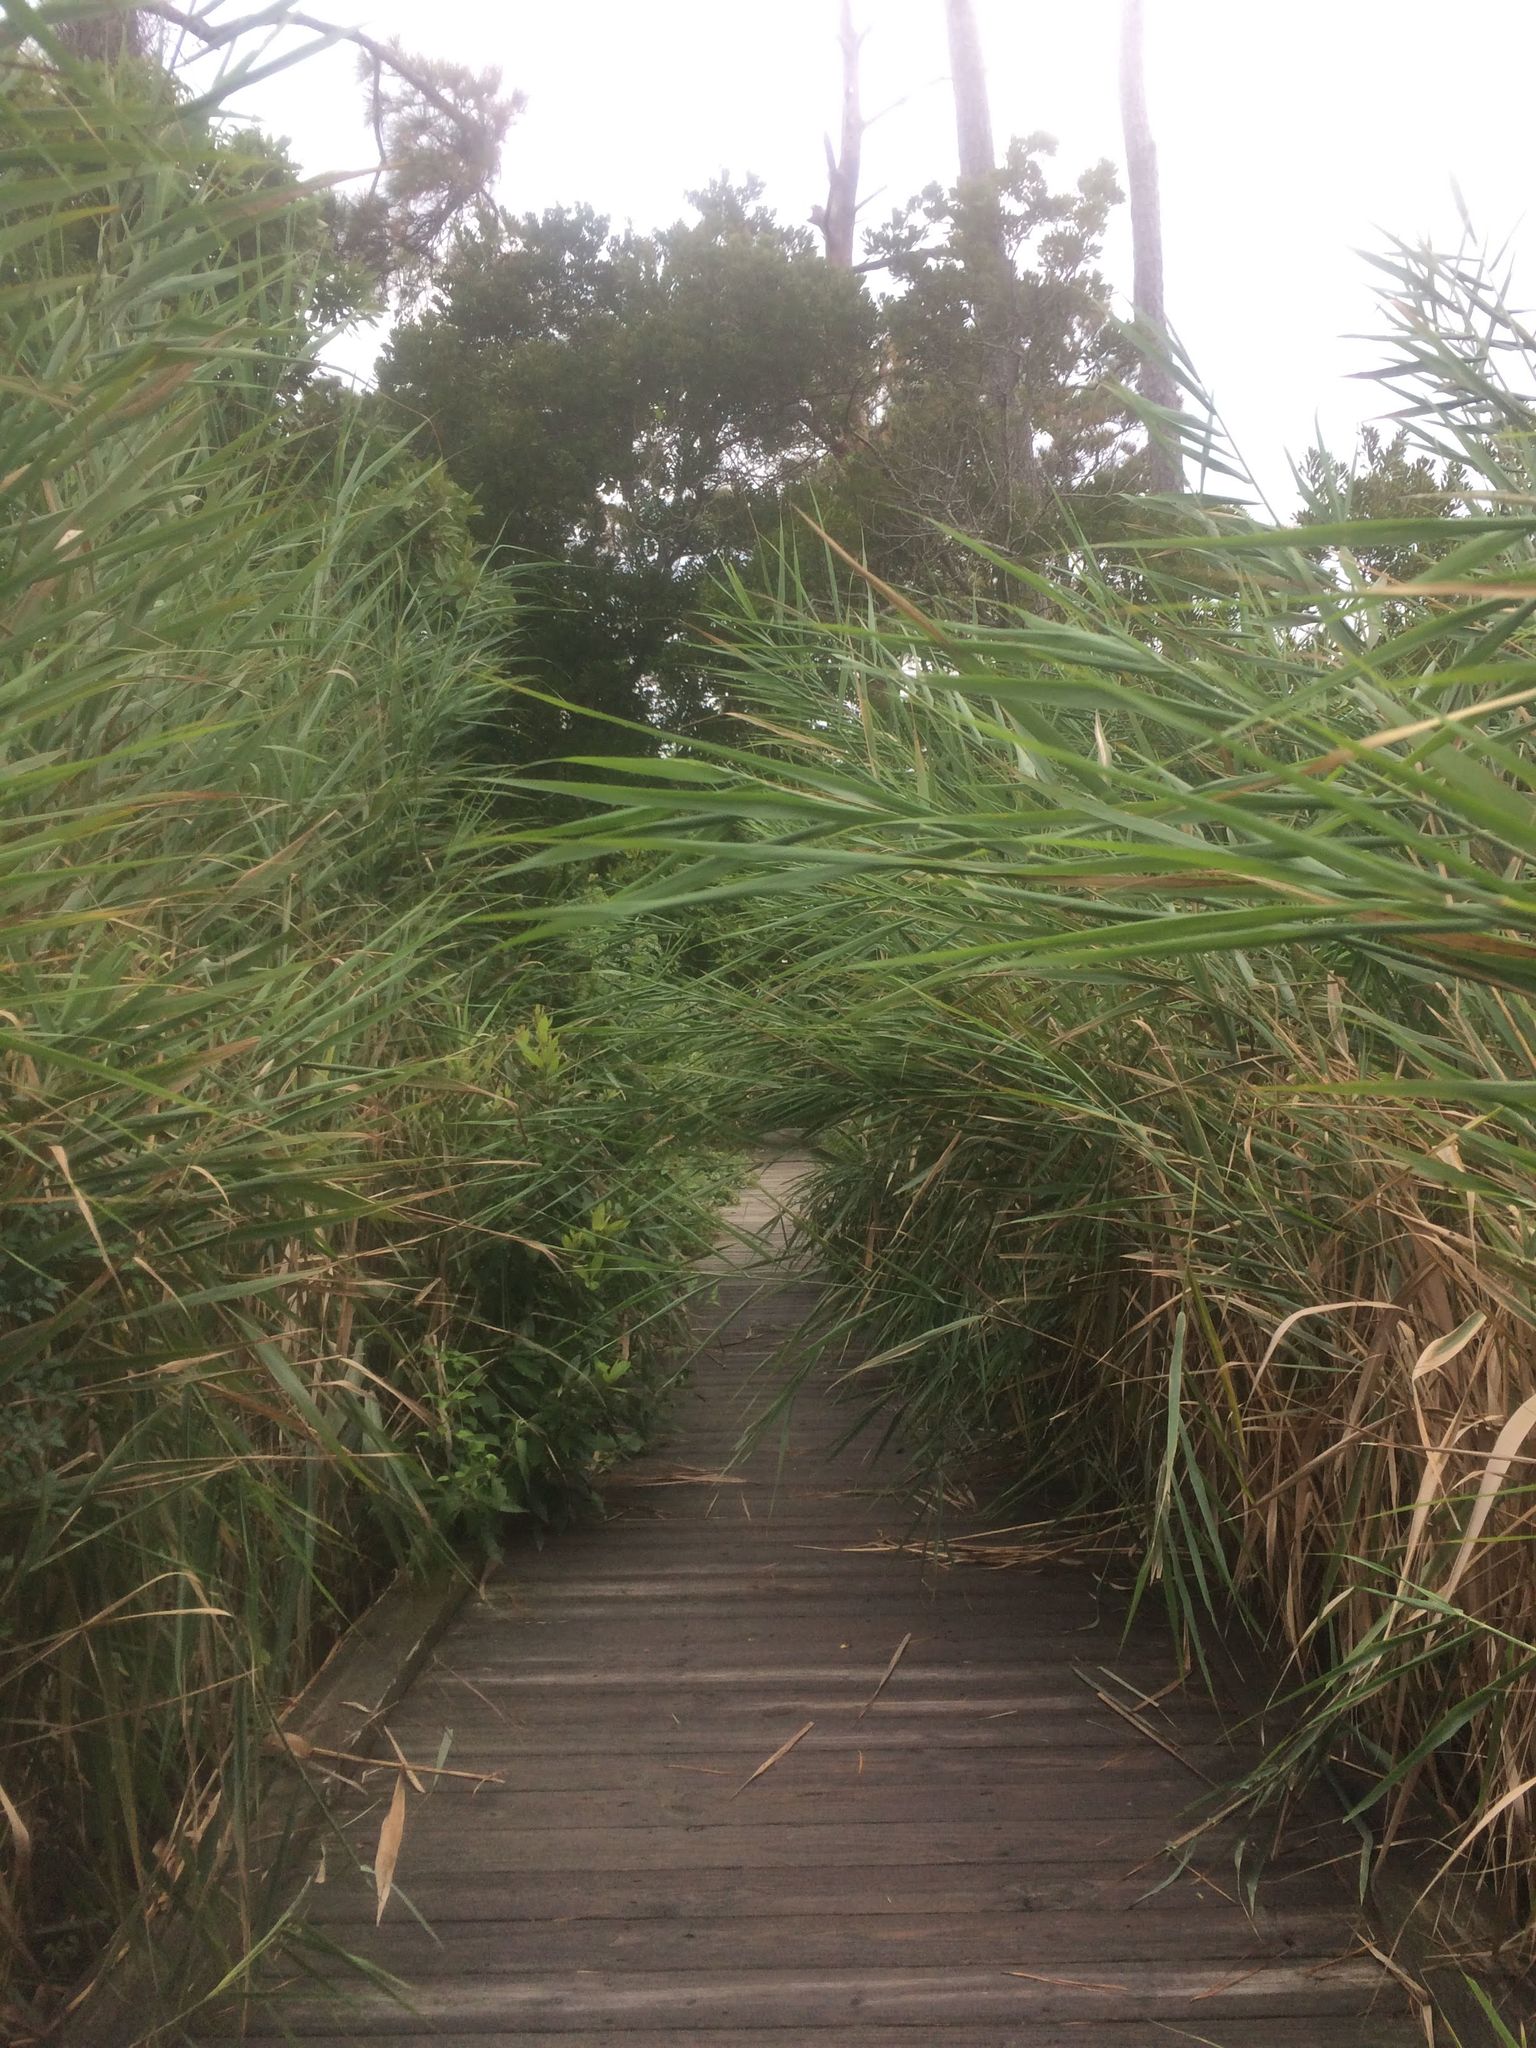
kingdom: Plantae
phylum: Tracheophyta
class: Liliopsida
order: Poales
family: Poaceae
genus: Phragmites
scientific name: Phragmites australis
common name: Common reed
